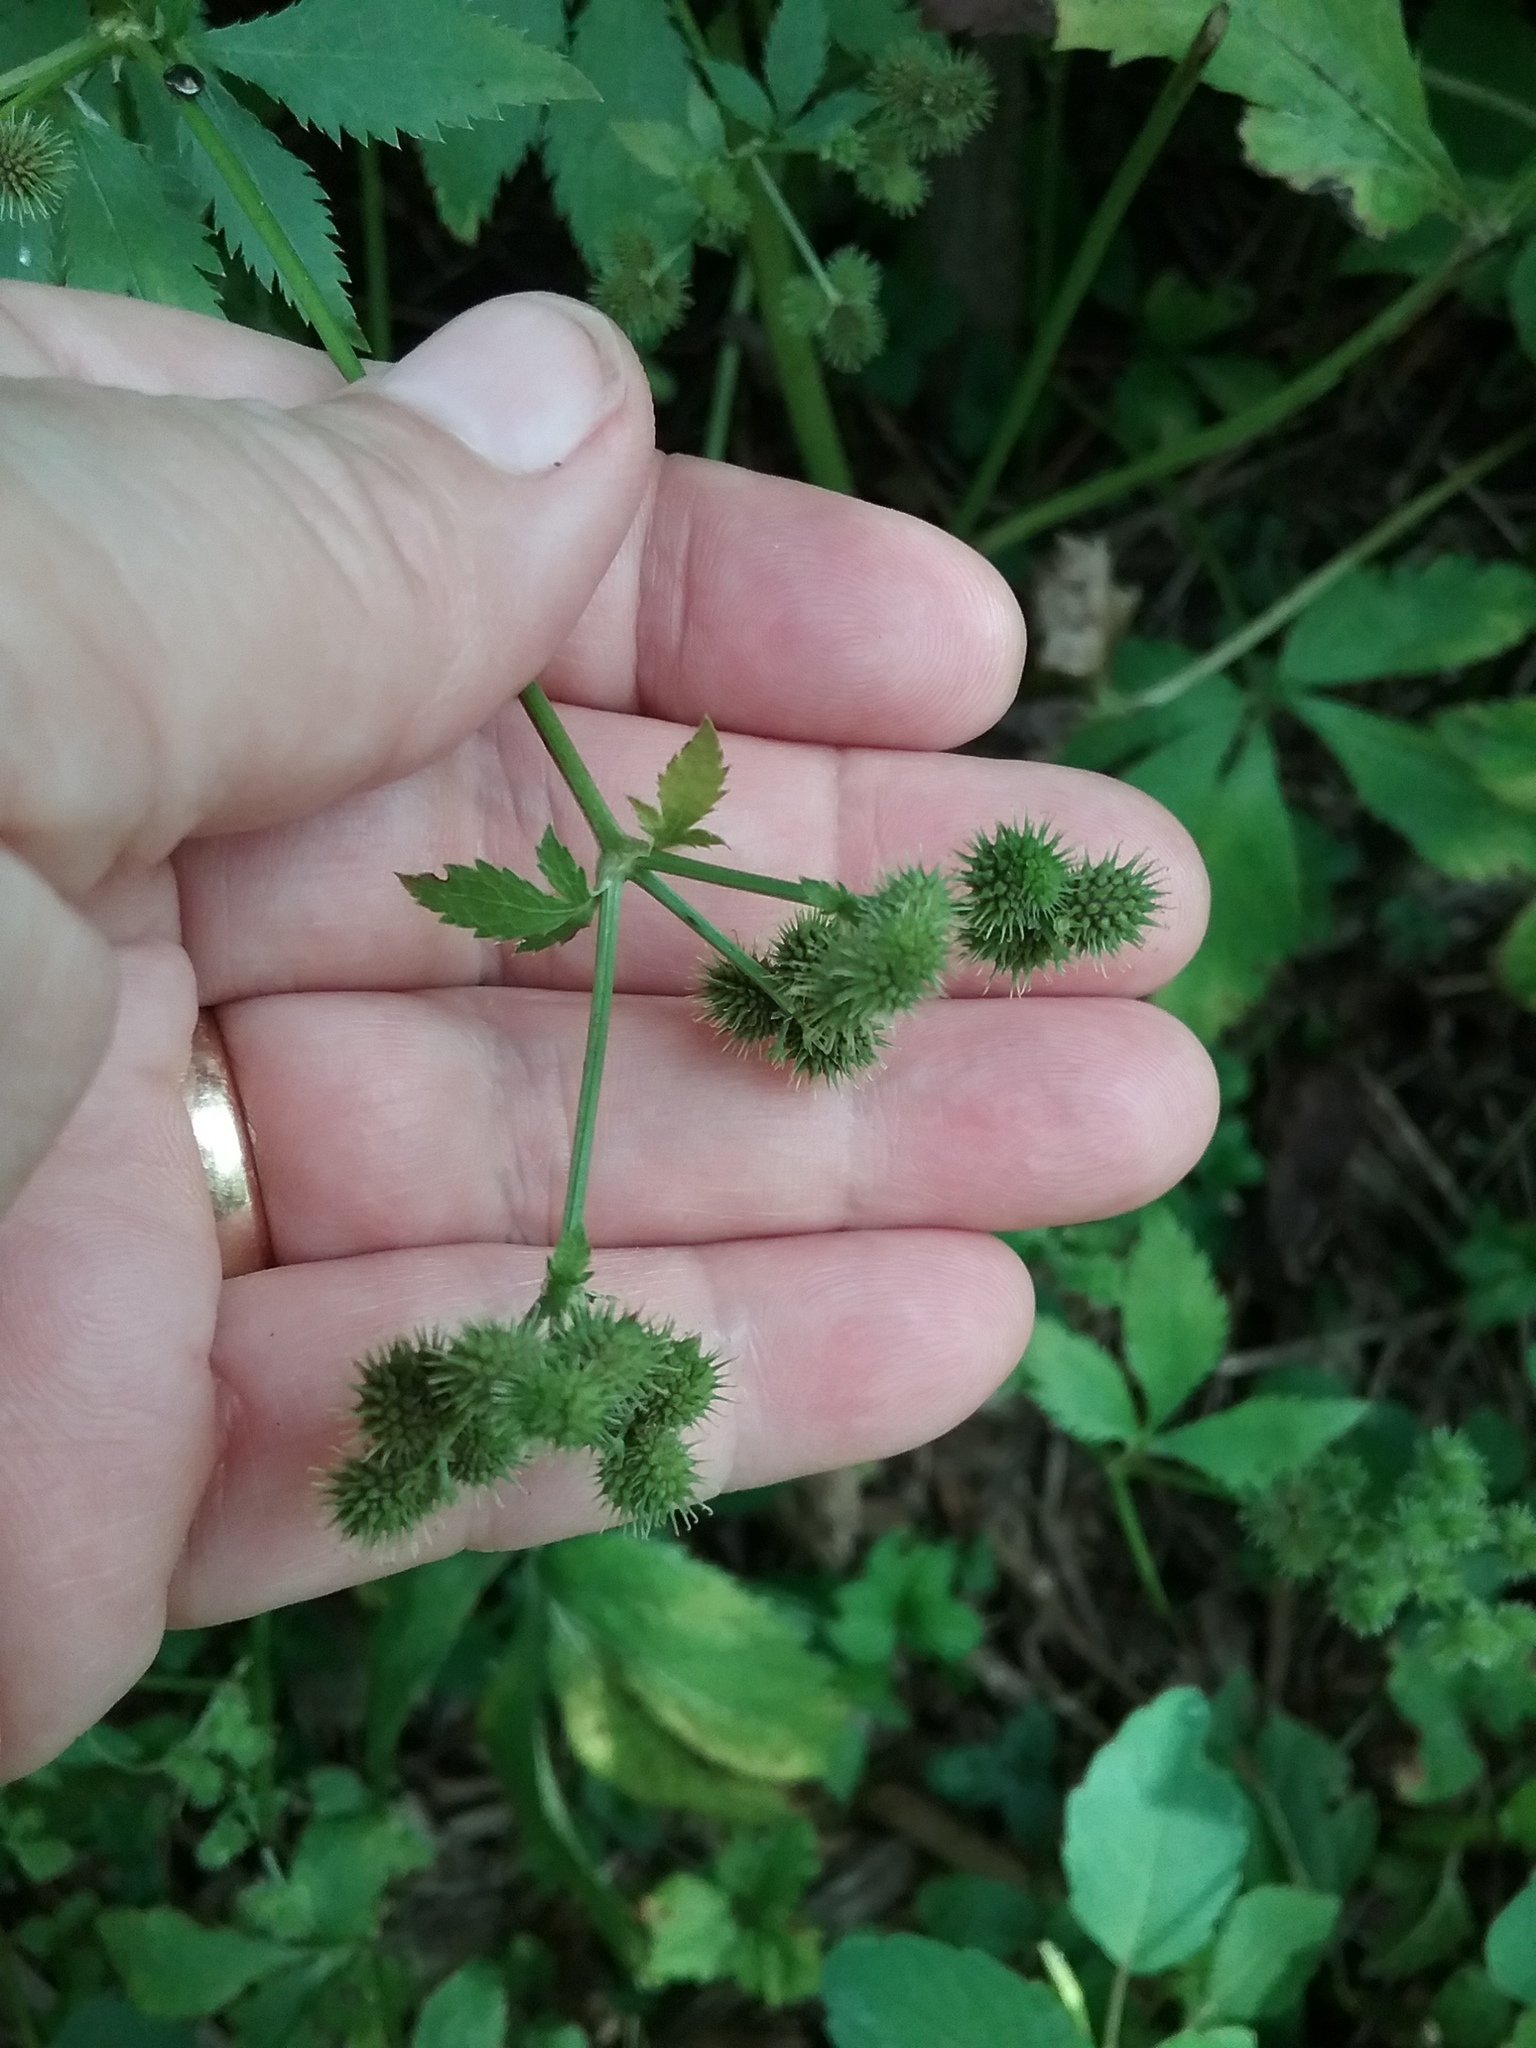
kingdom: Plantae
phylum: Tracheophyta
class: Magnoliopsida
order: Apiales
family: Apiaceae
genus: Sanicula
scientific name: Sanicula canadensis
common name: Canada sanicle
